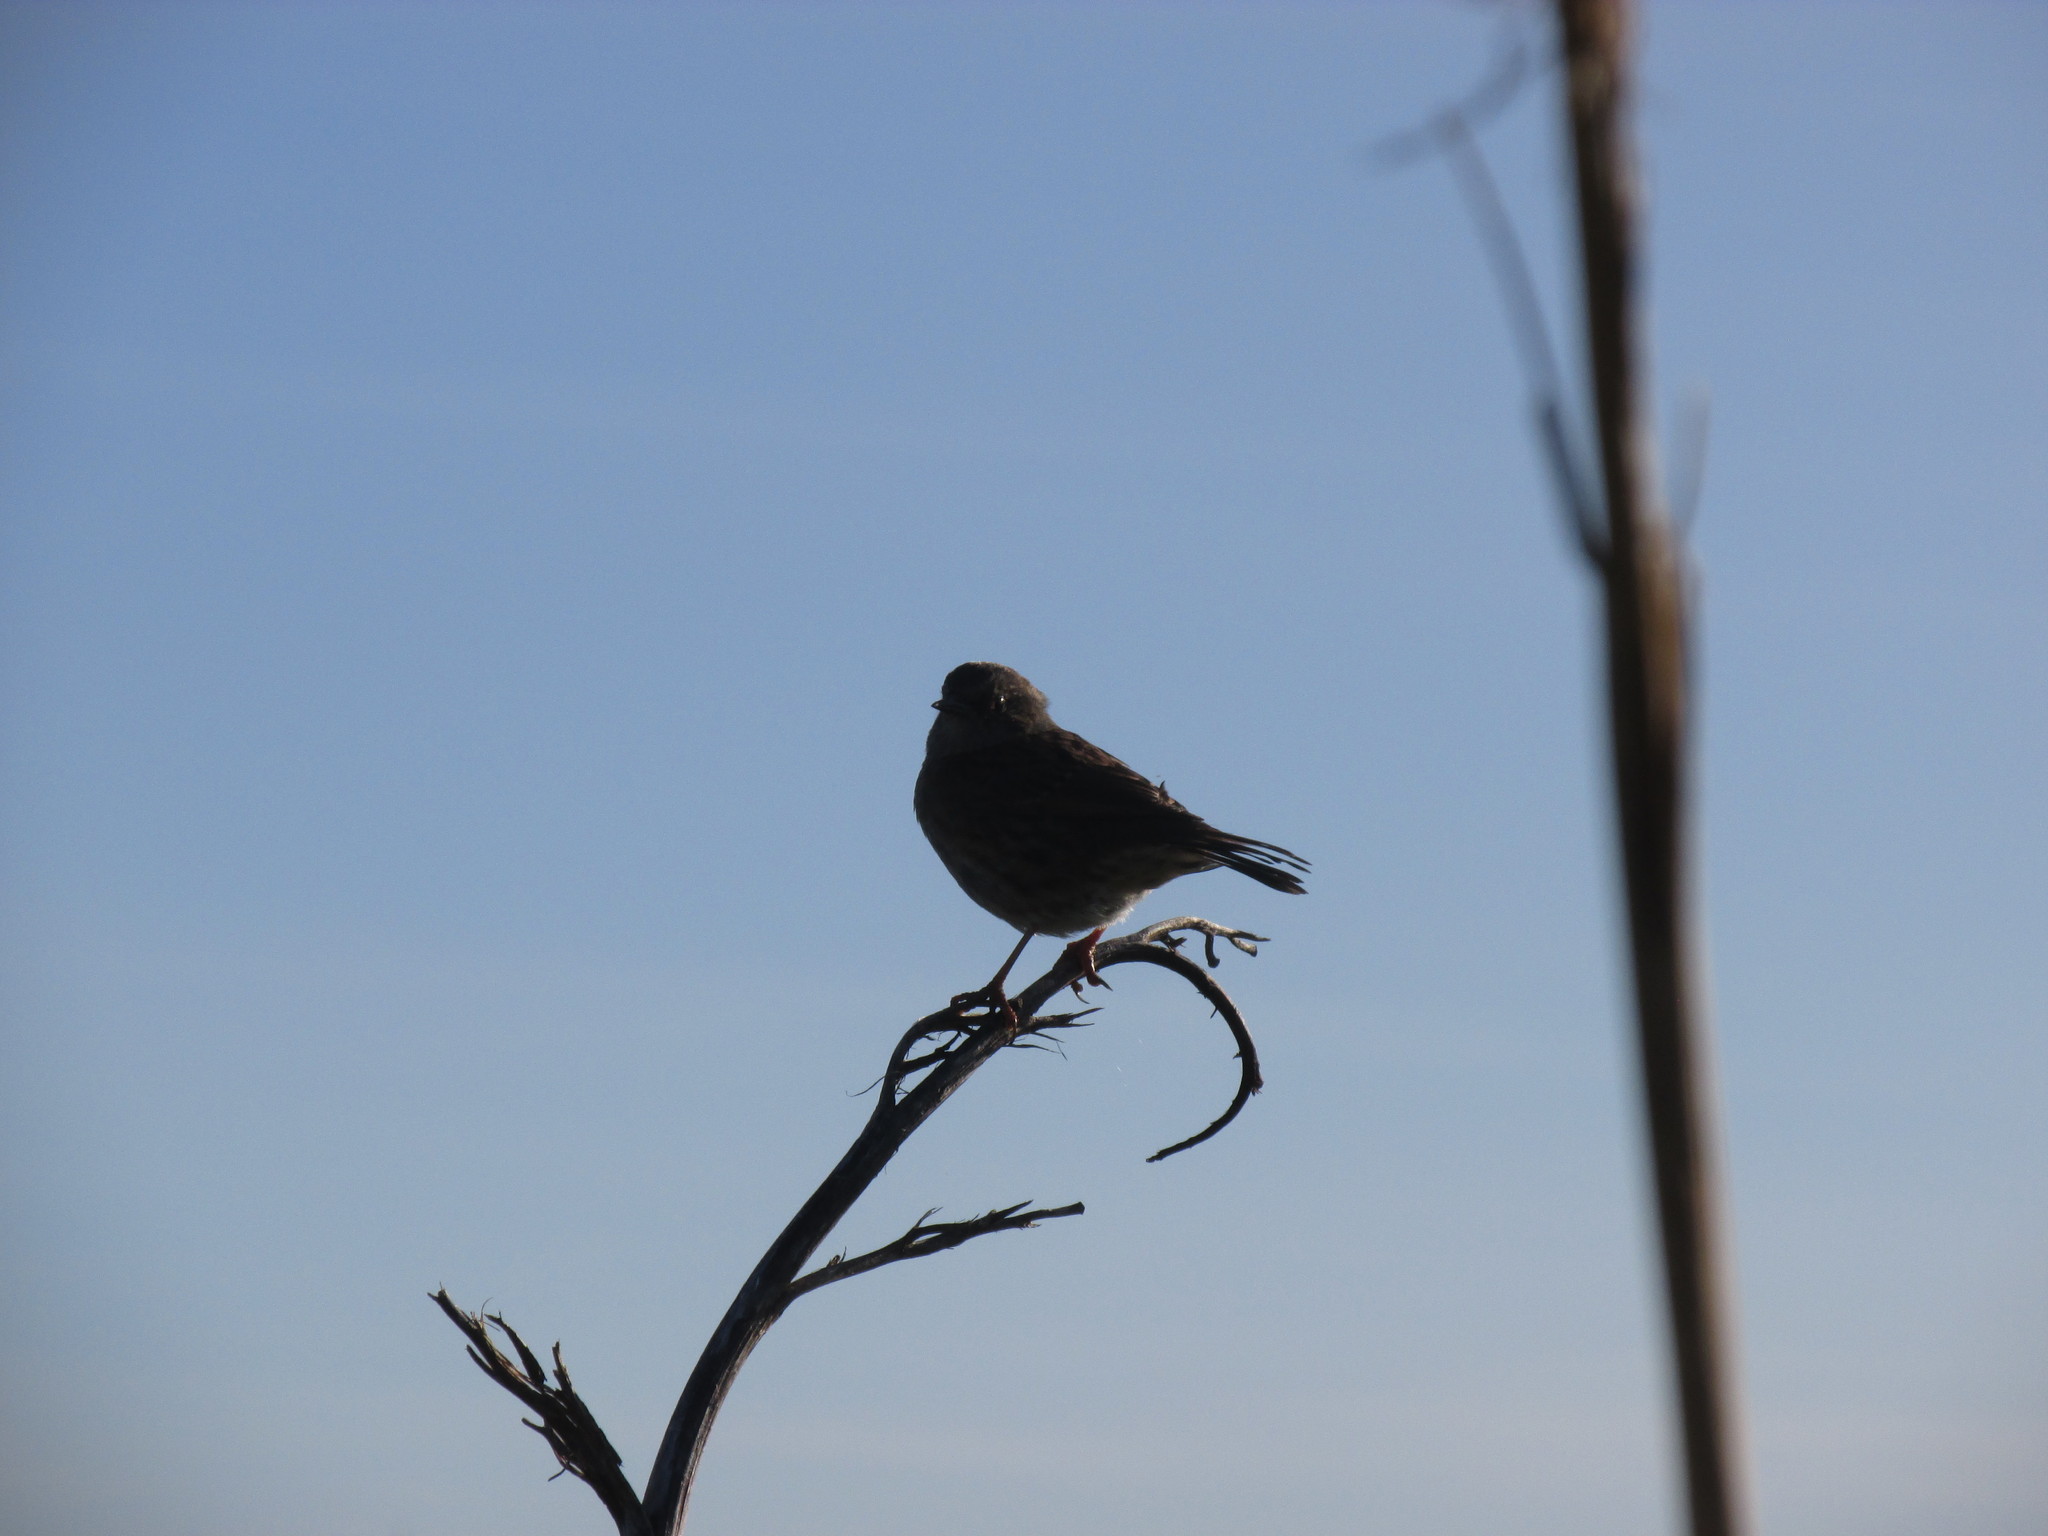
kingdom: Animalia
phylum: Chordata
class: Aves
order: Passeriformes
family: Prunellidae
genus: Prunella
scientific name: Prunella modularis
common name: Dunnock
